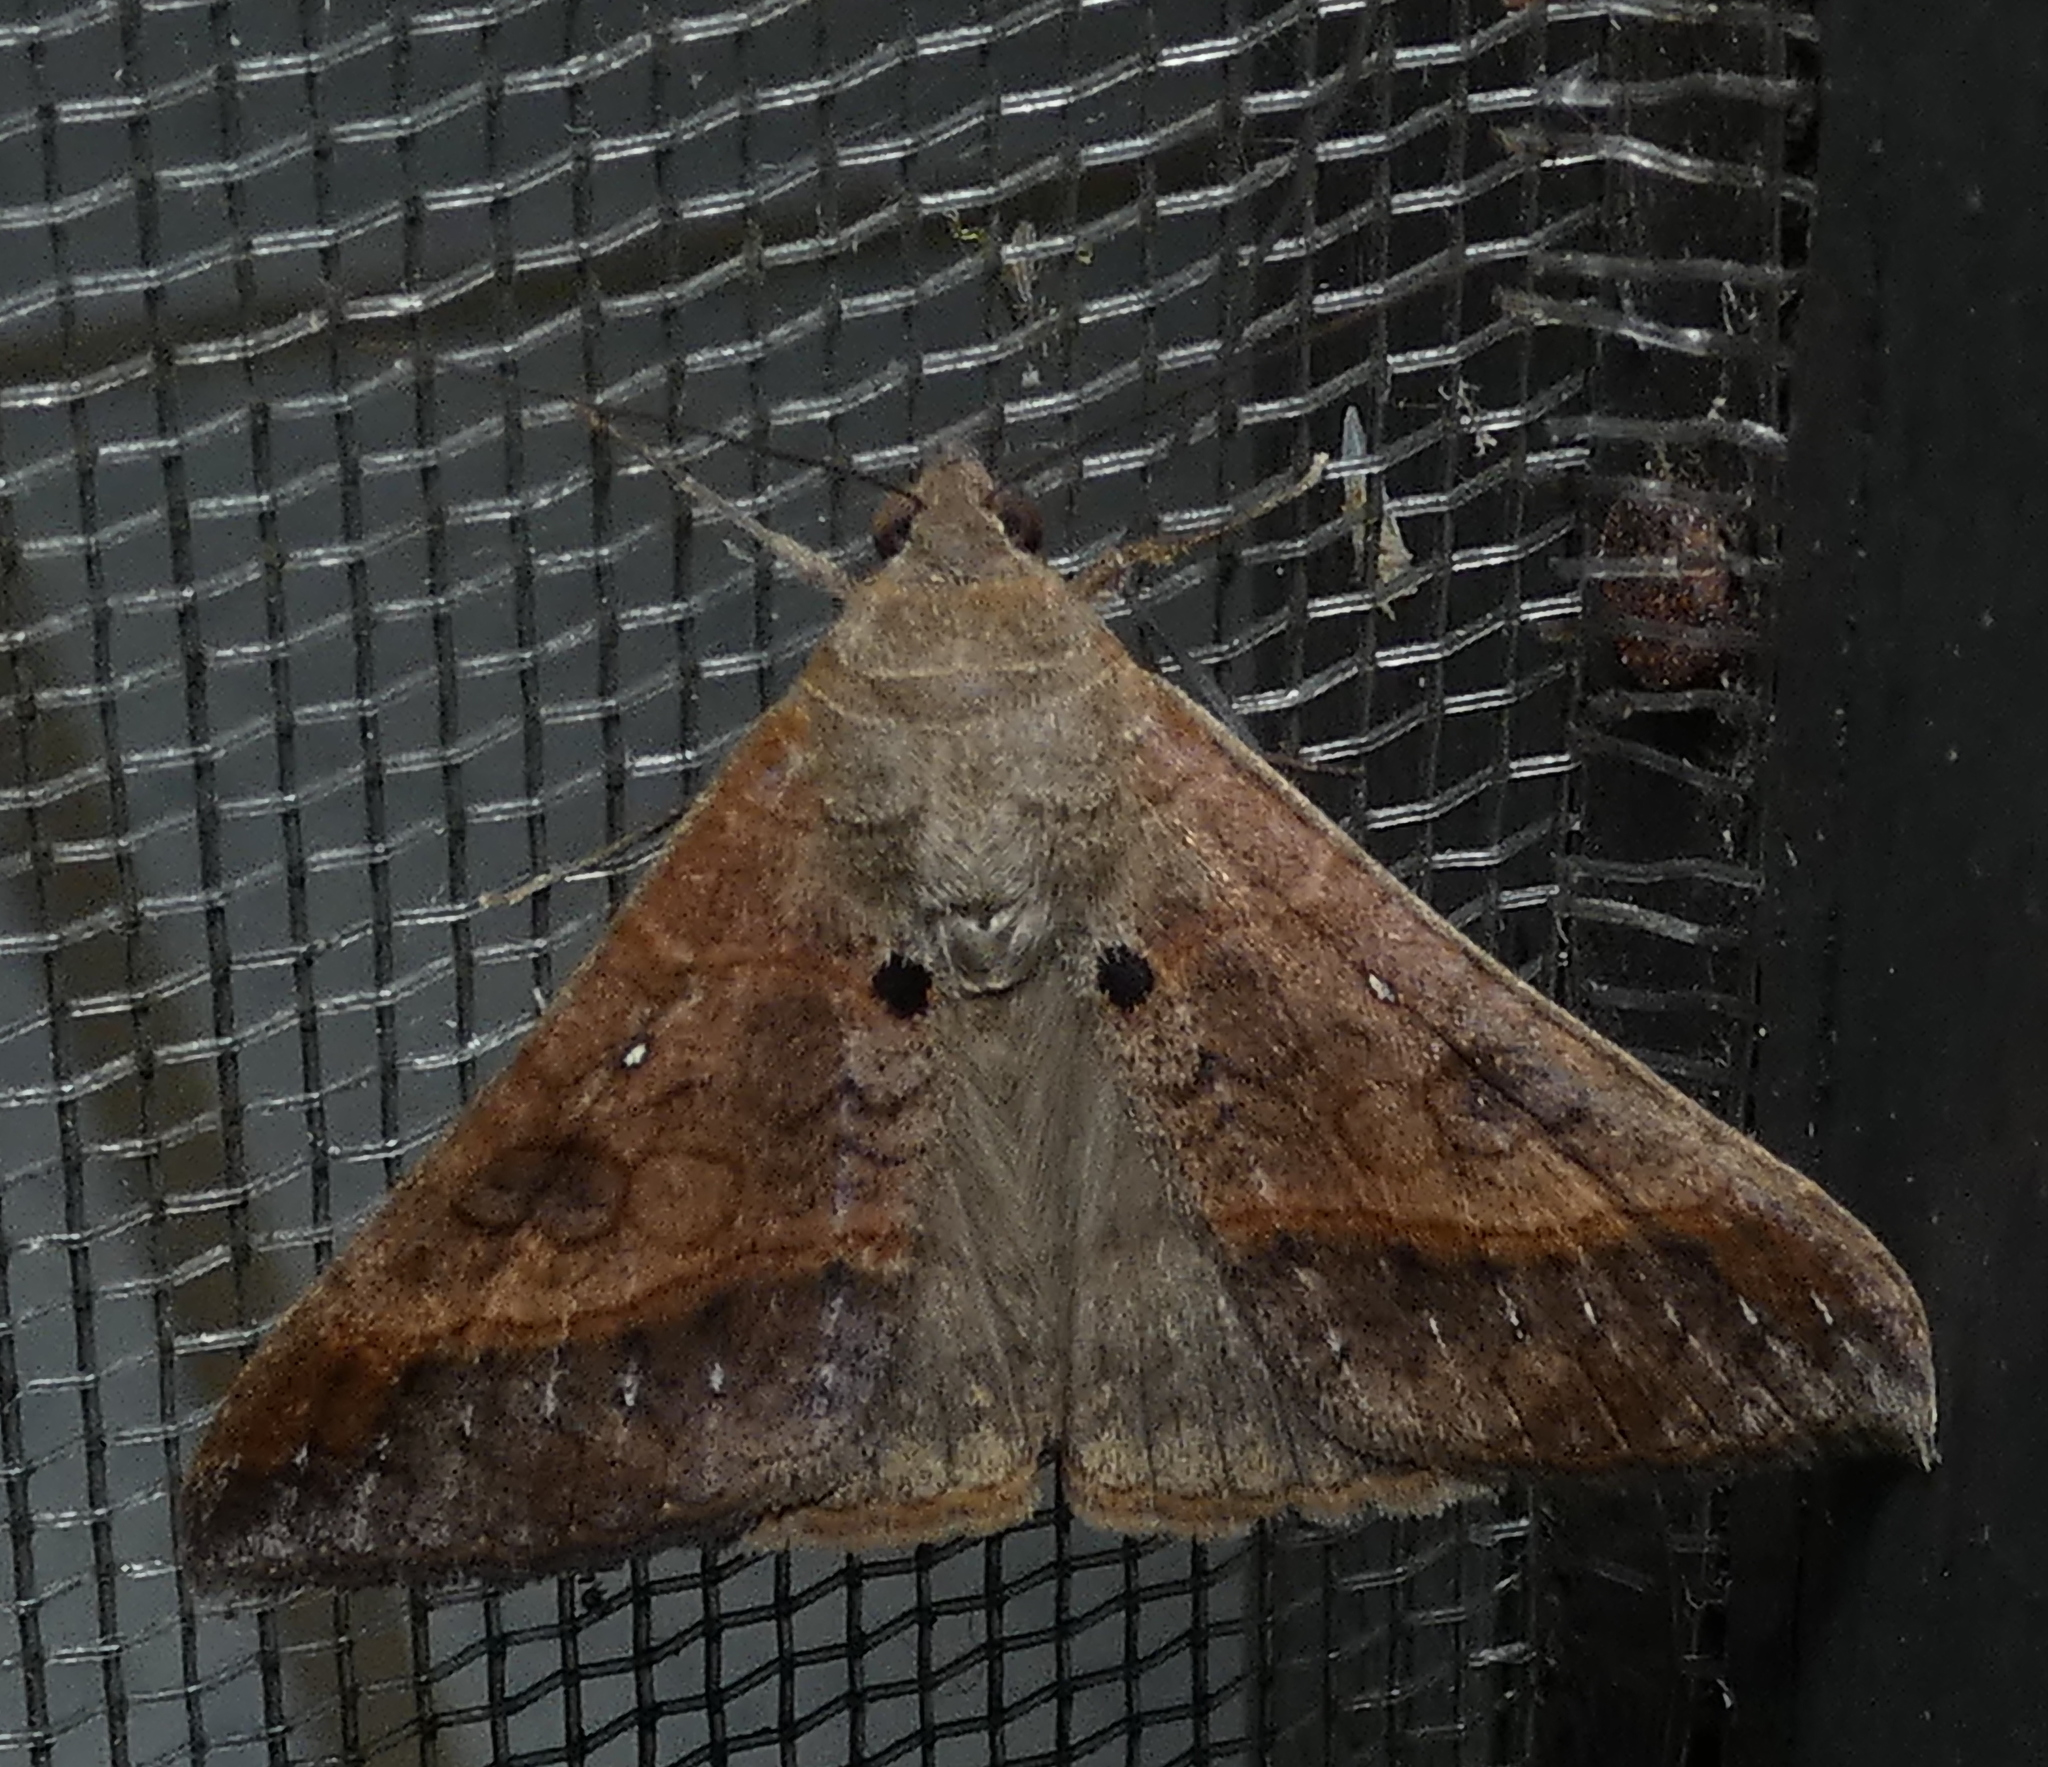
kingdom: Animalia
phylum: Arthropoda
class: Insecta
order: Lepidoptera
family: Erebidae
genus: Mocis
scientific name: Mocis latipes
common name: Striped grass looper
